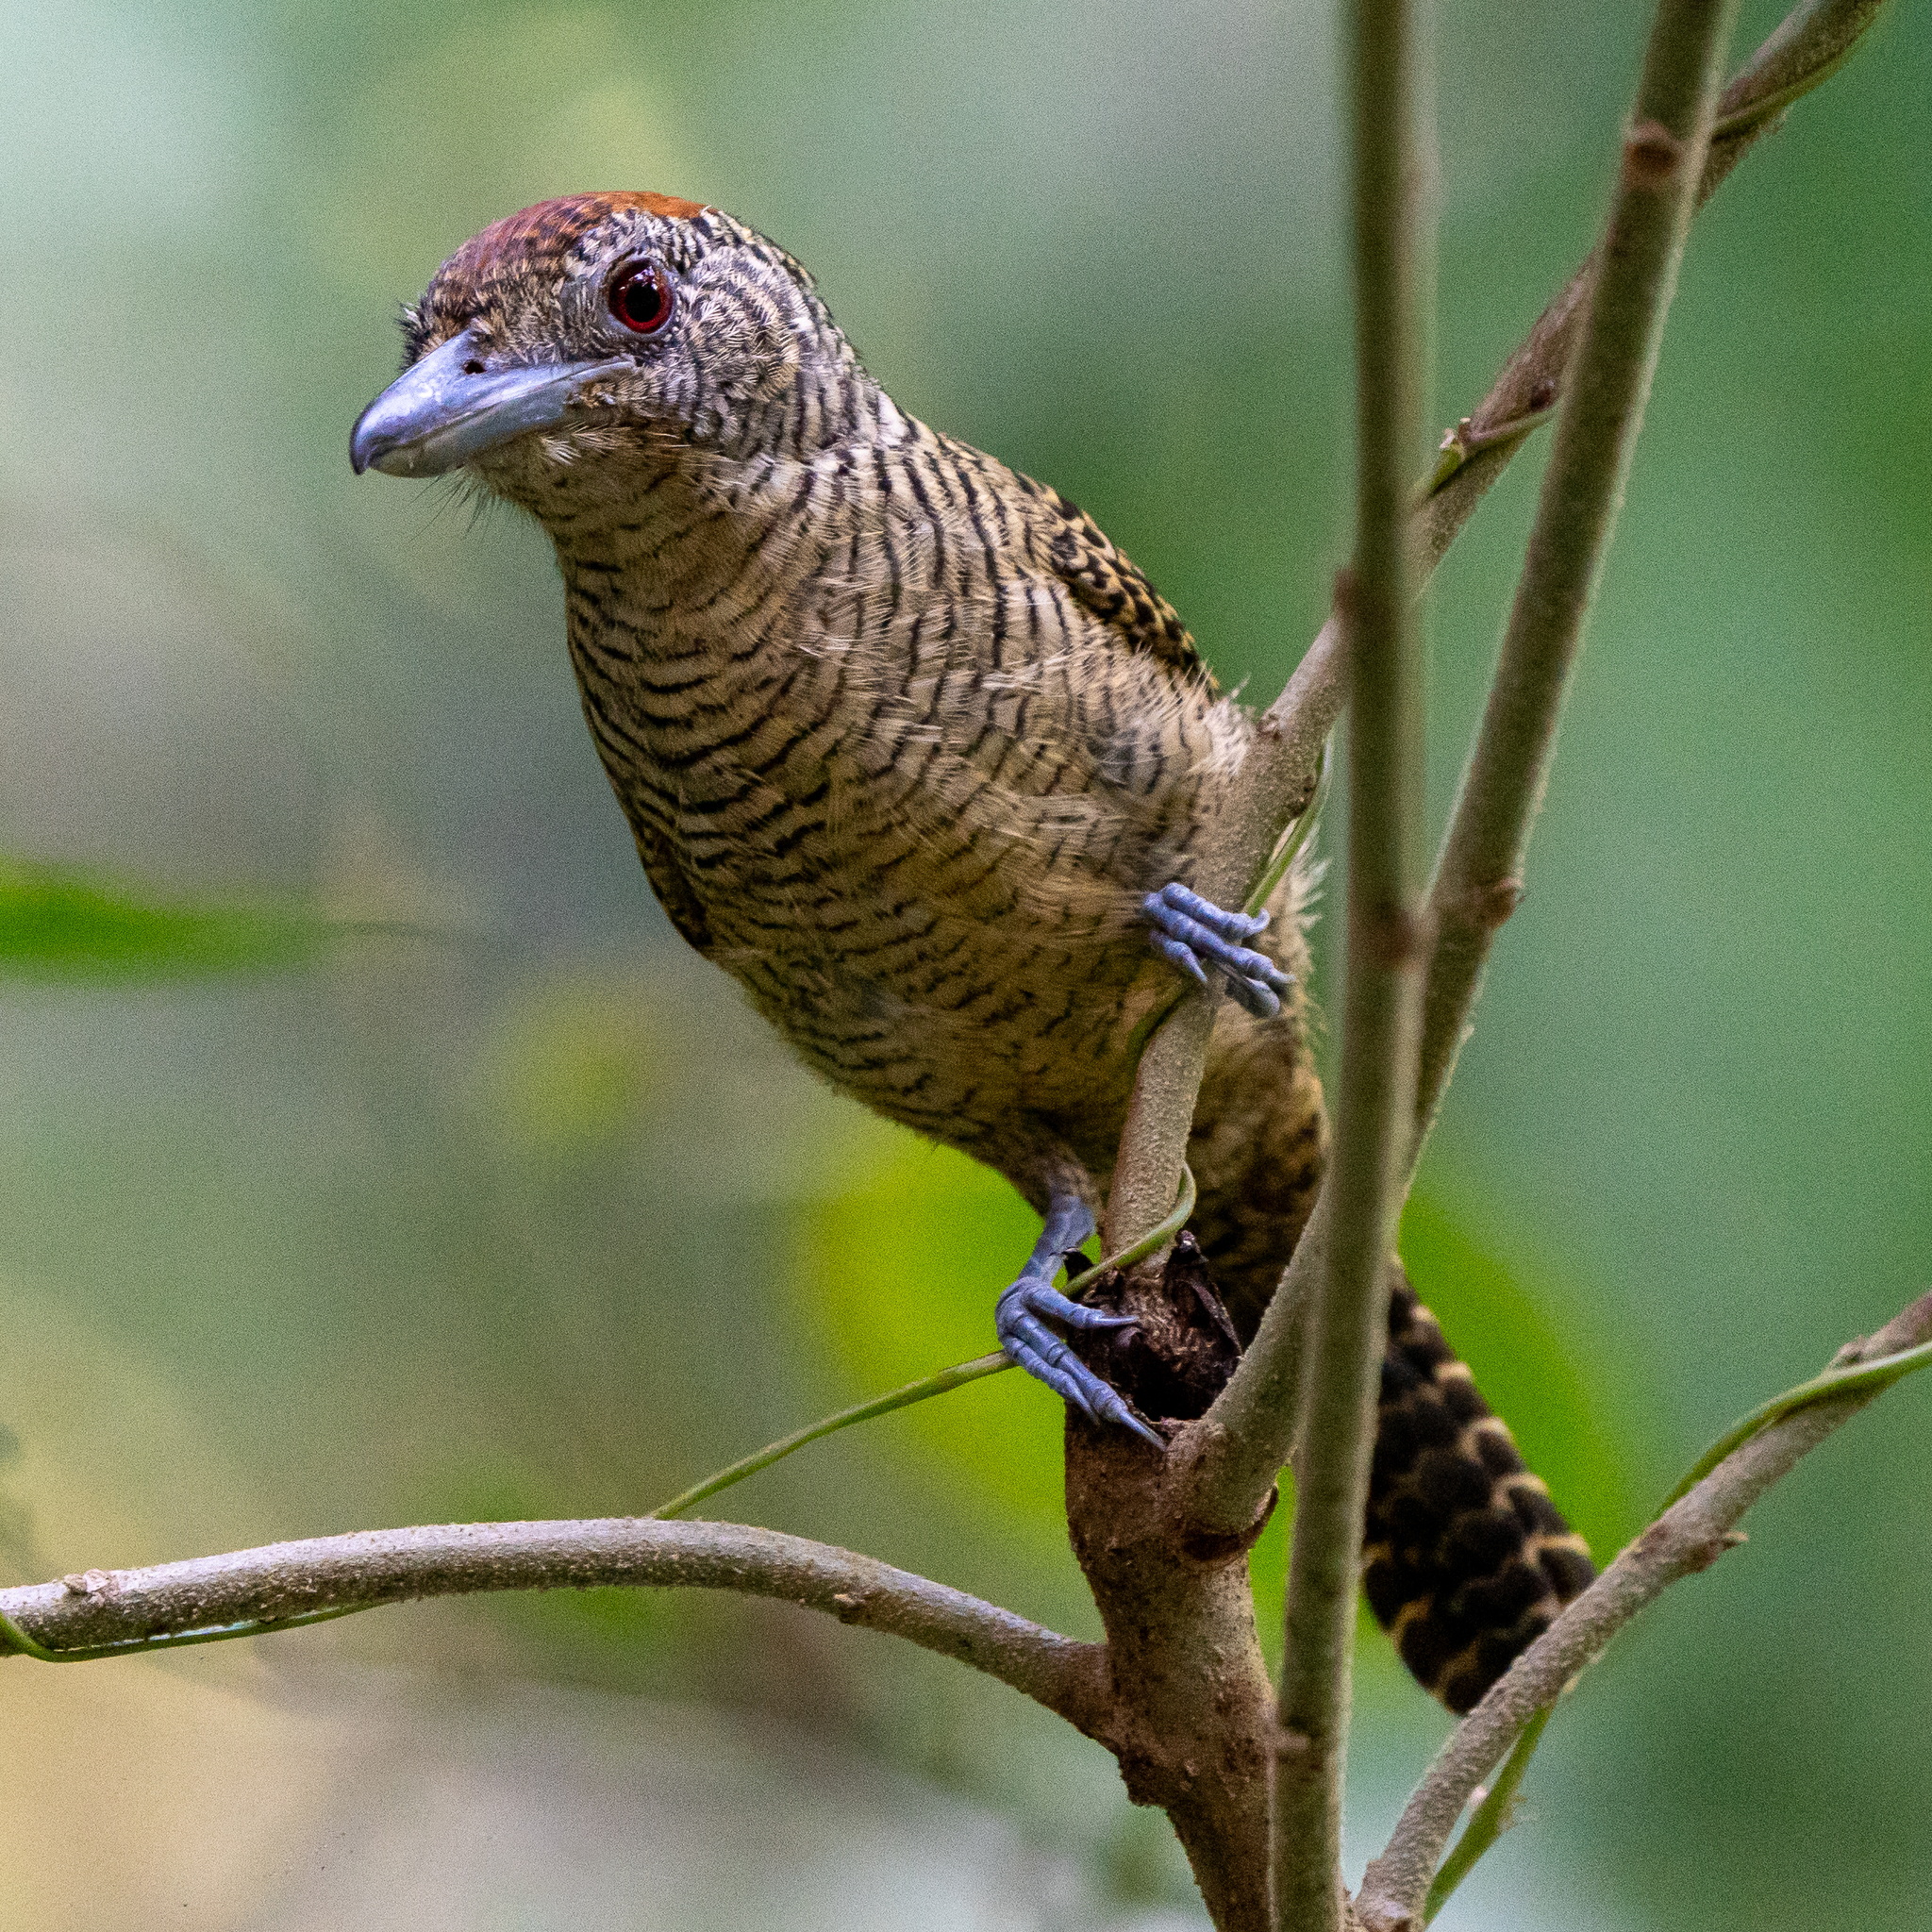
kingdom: Animalia
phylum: Chordata
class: Aves
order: Passeriformes
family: Thamnophilidae
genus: Cymbilaimus
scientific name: Cymbilaimus lineatus
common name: Fasciated antshrike
